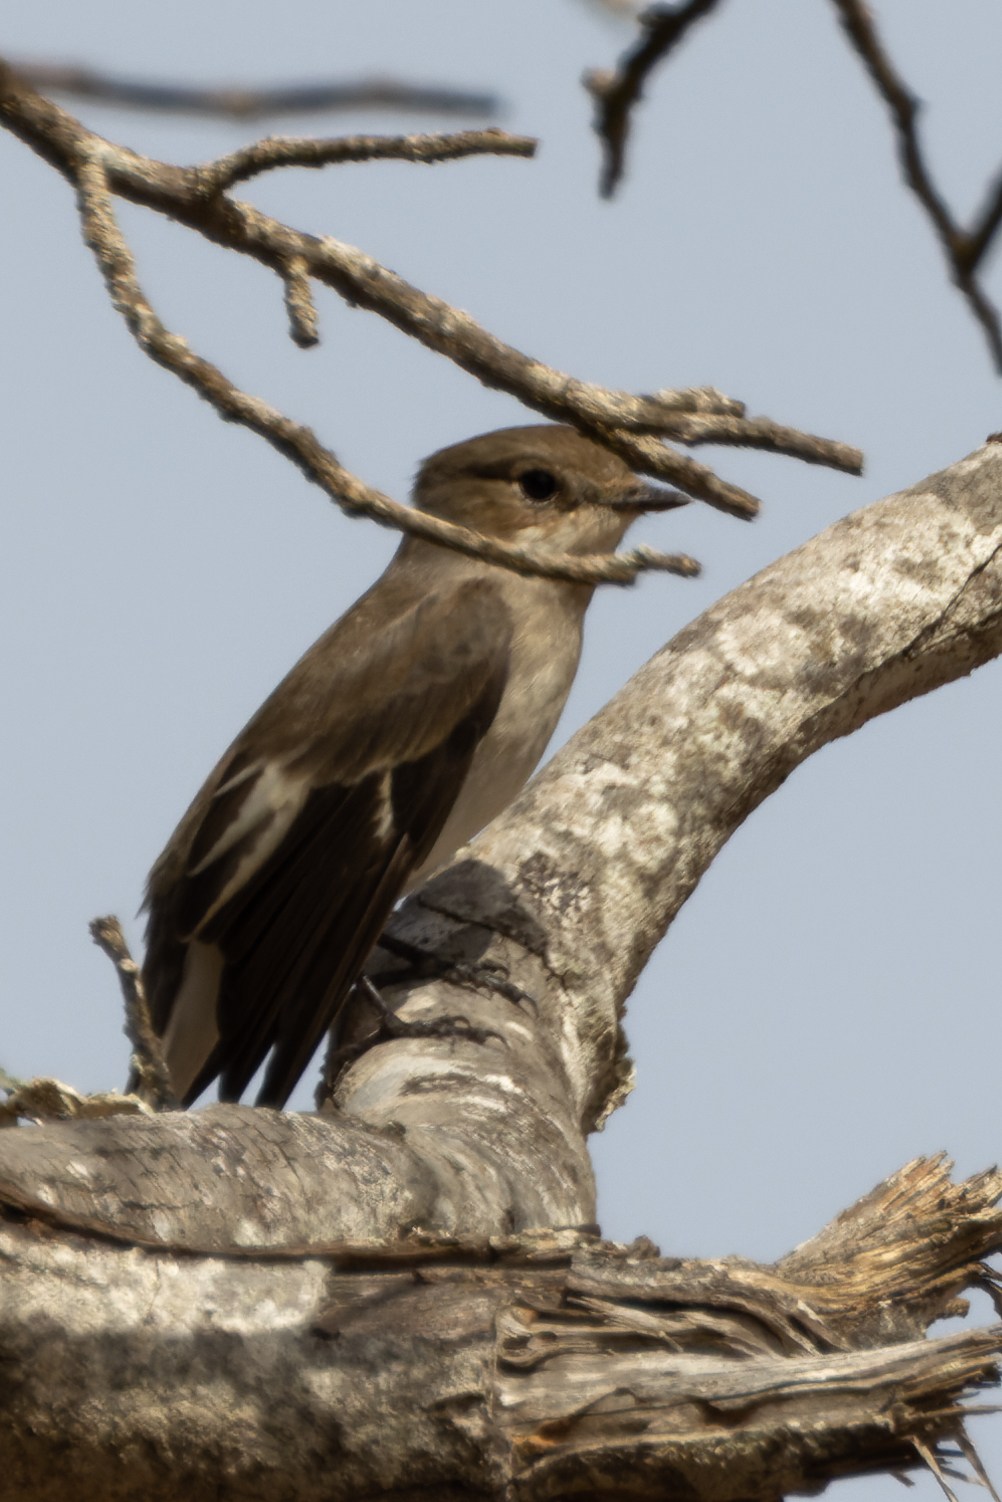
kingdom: Animalia
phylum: Chordata
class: Aves
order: Passeriformes
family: Muscicapidae
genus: Ficedula
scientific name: Ficedula hypoleuca
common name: European pied flycatcher
